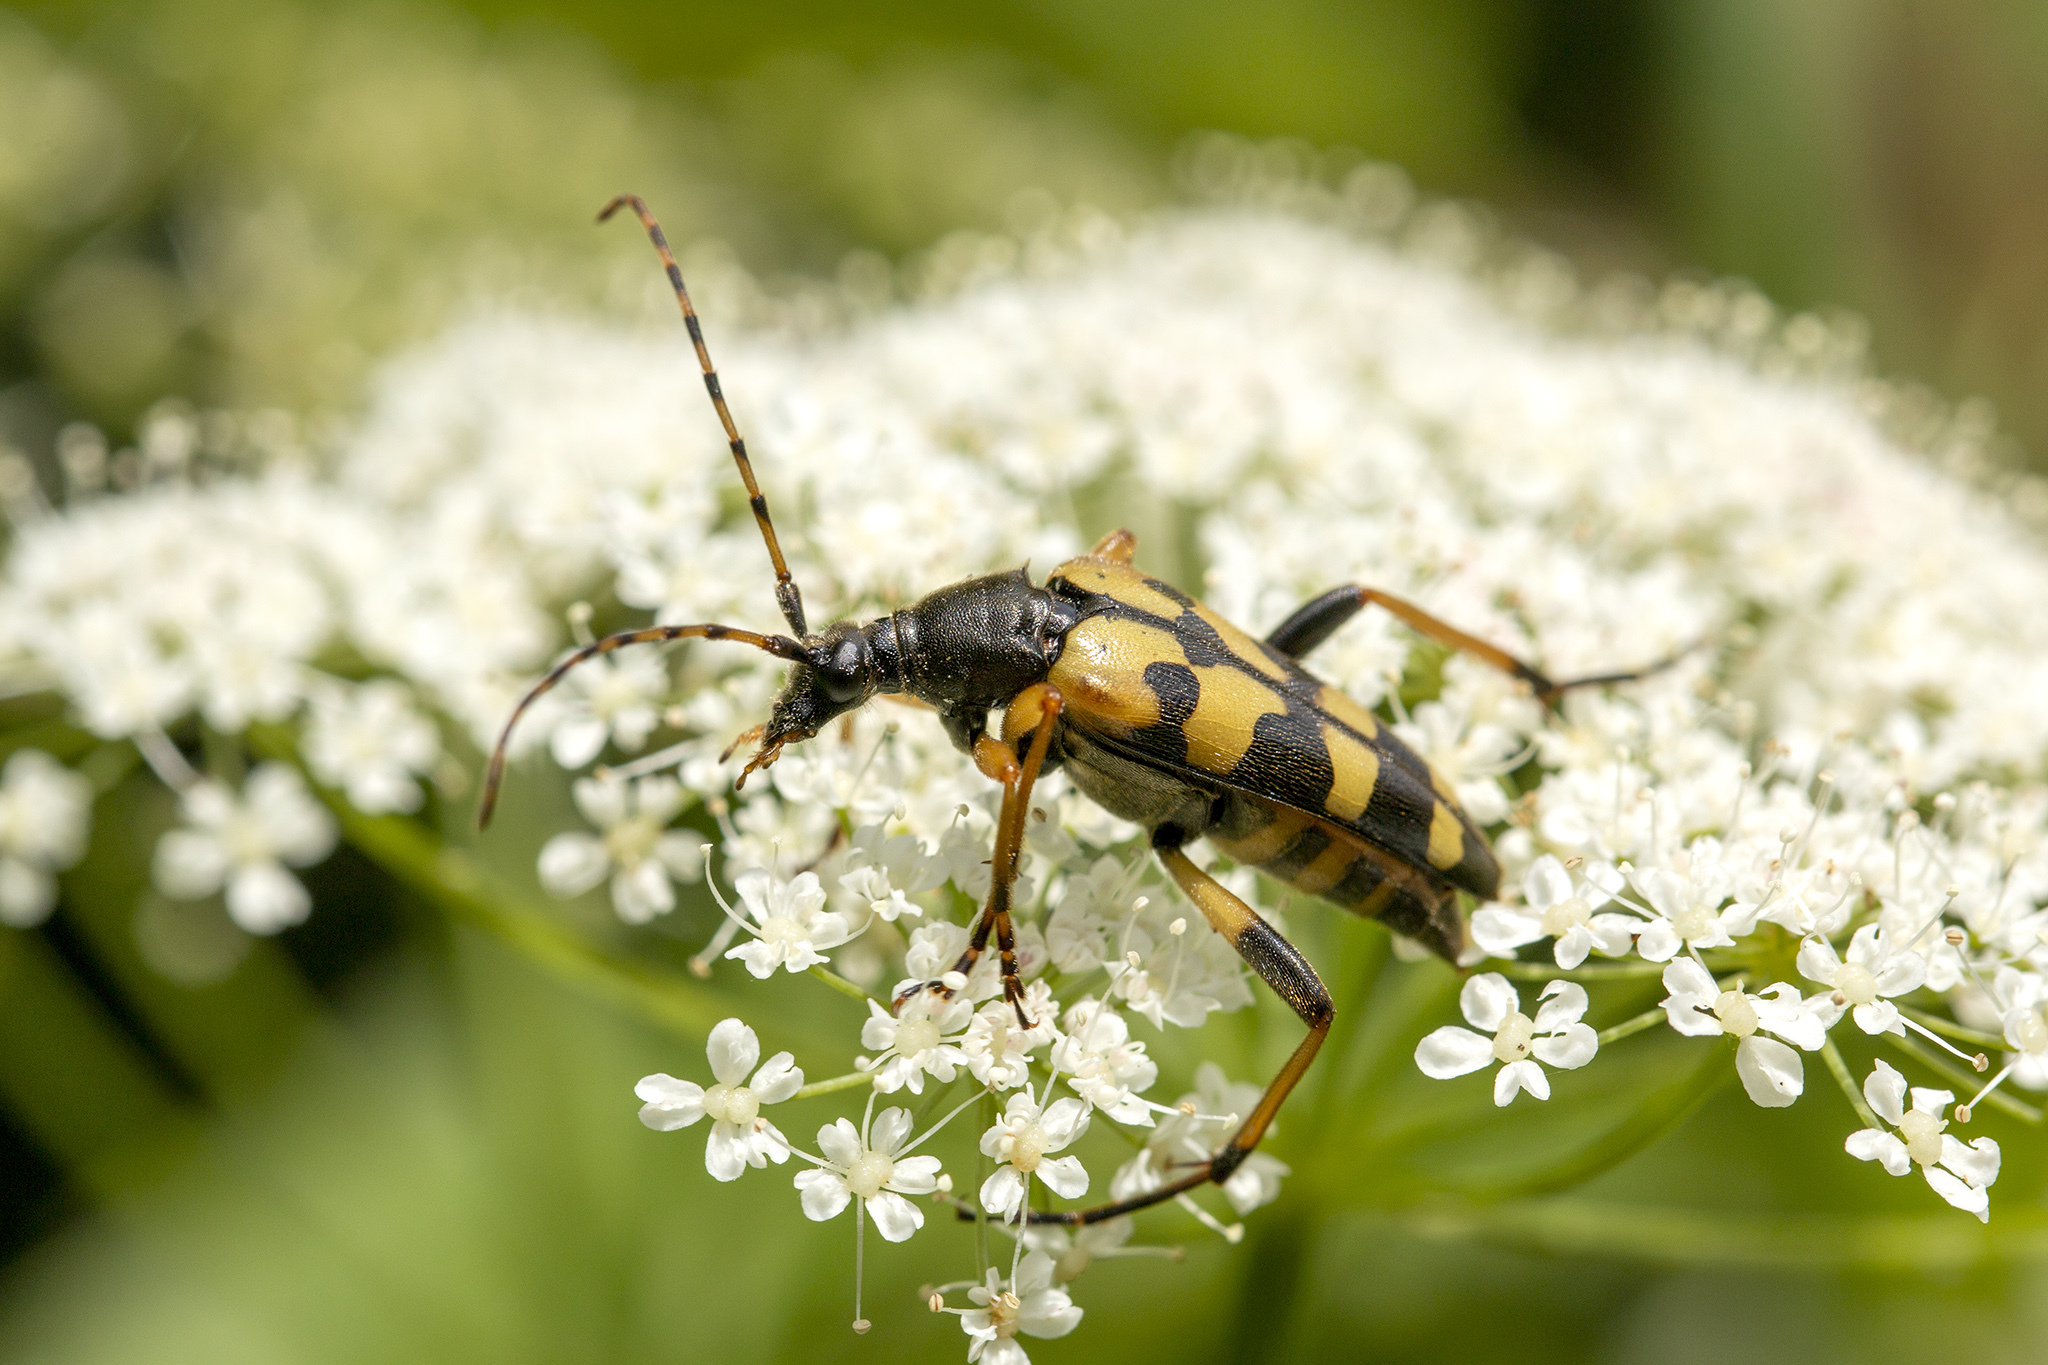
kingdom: Animalia
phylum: Arthropoda
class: Insecta
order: Coleoptera
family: Cerambycidae
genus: Rutpela
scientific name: Rutpela maculata
